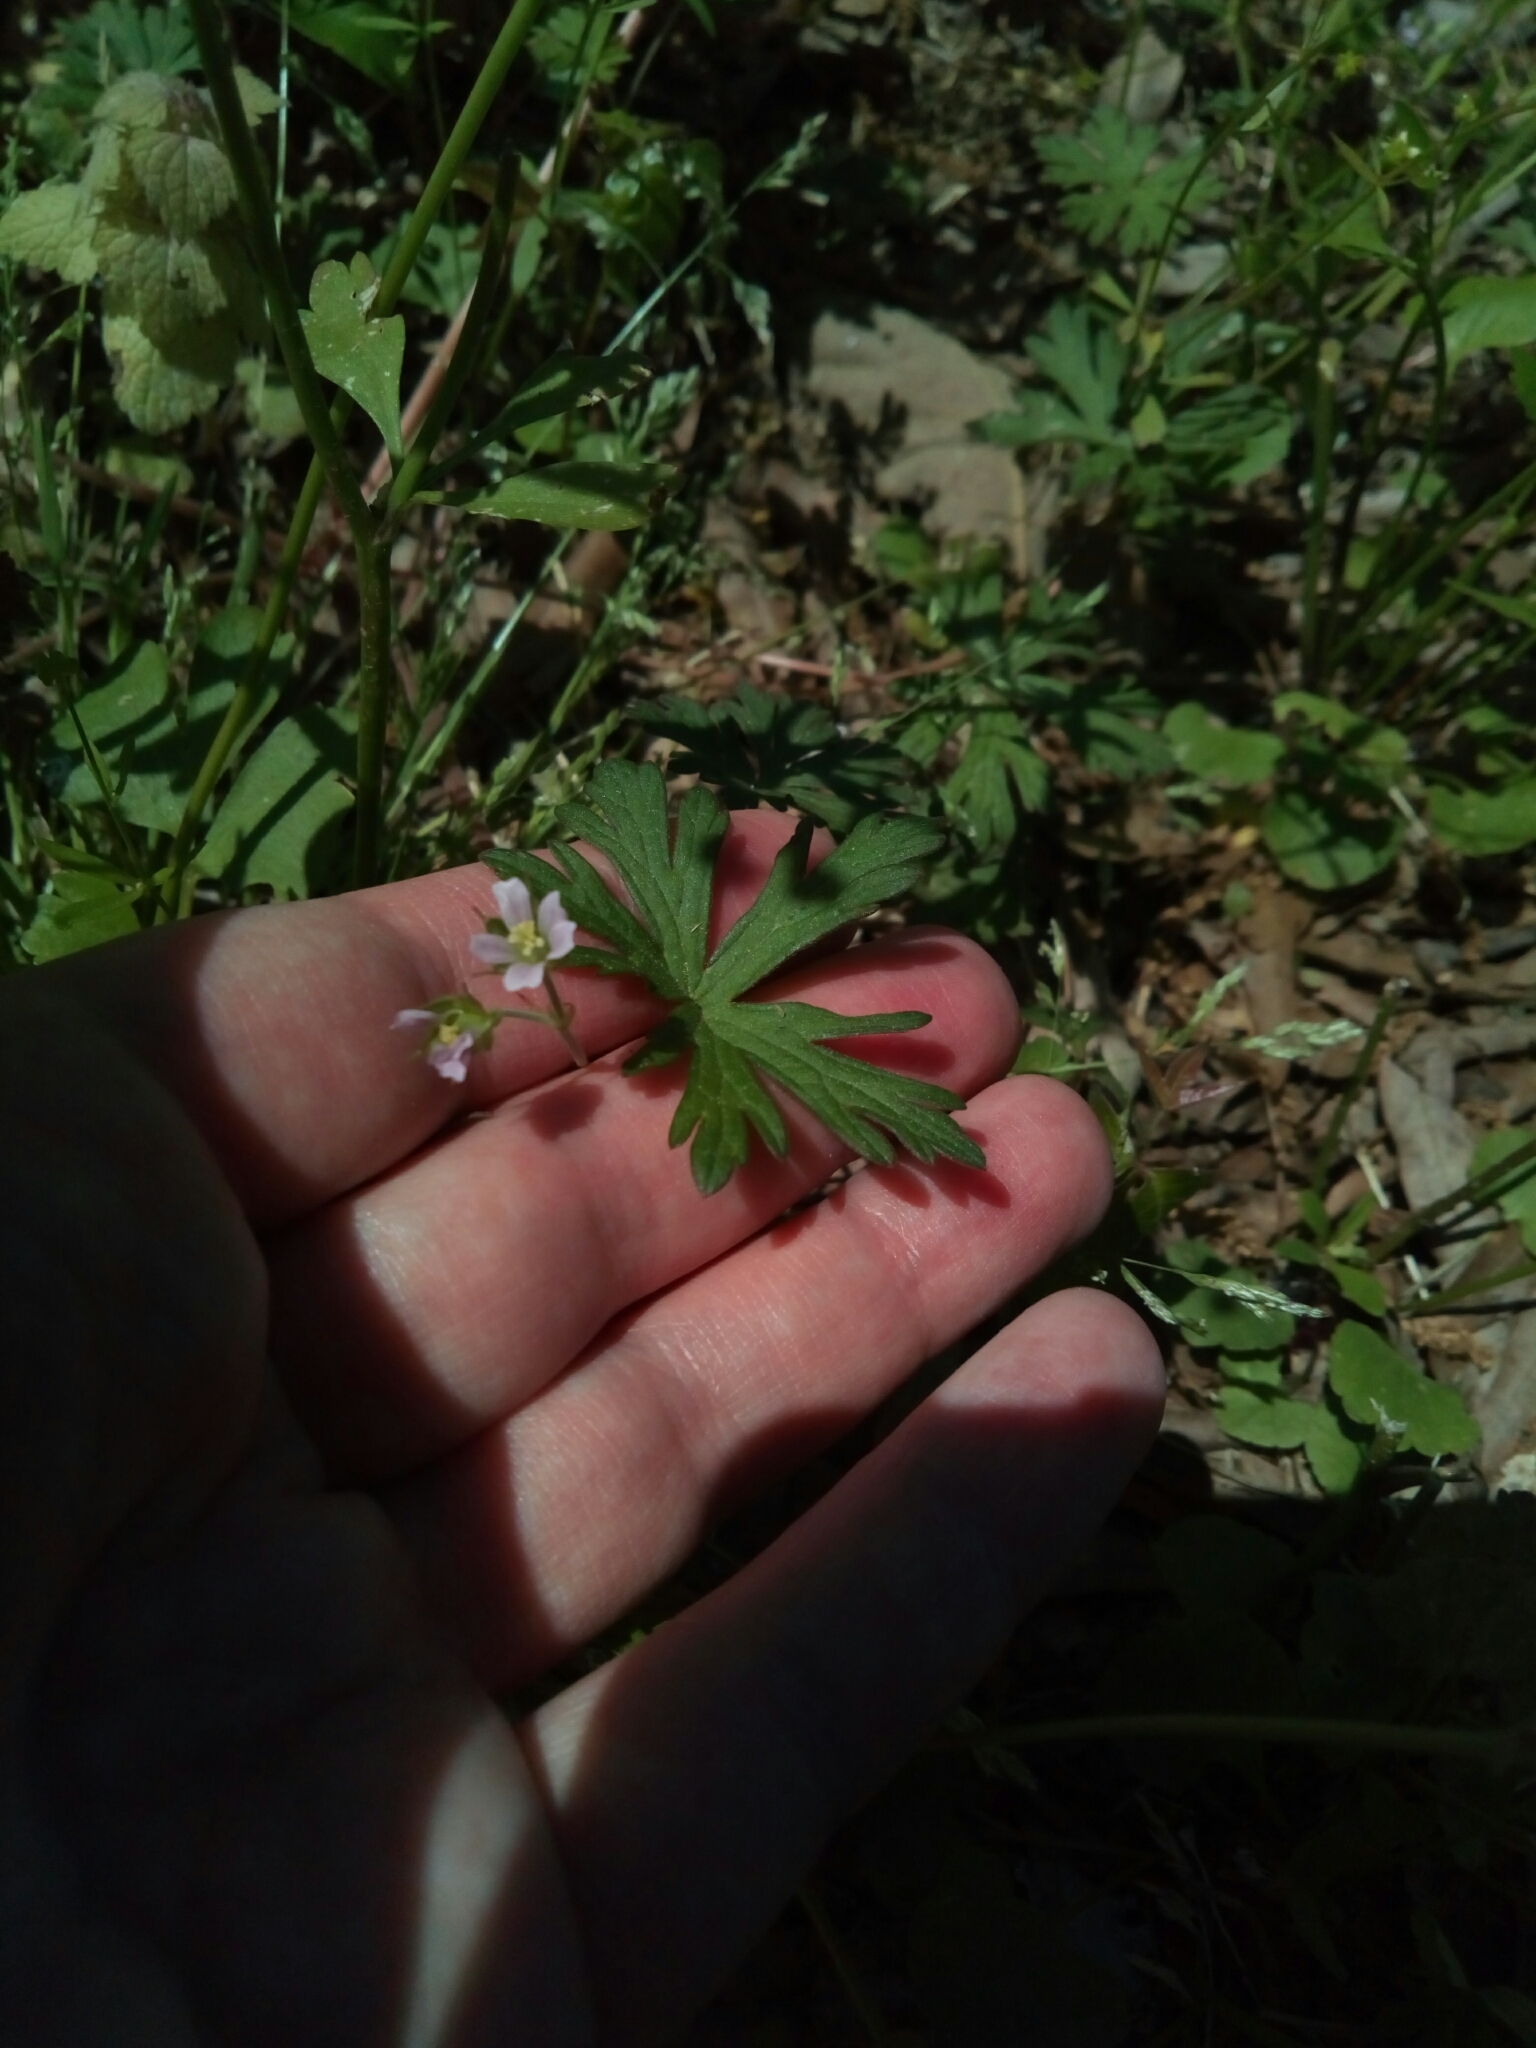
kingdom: Plantae
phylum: Tracheophyta
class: Magnoliopsida
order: Geraniales
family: Geraniaceae
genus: Geranium
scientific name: Geranium carolinianum
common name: Carolina crane's-bill
